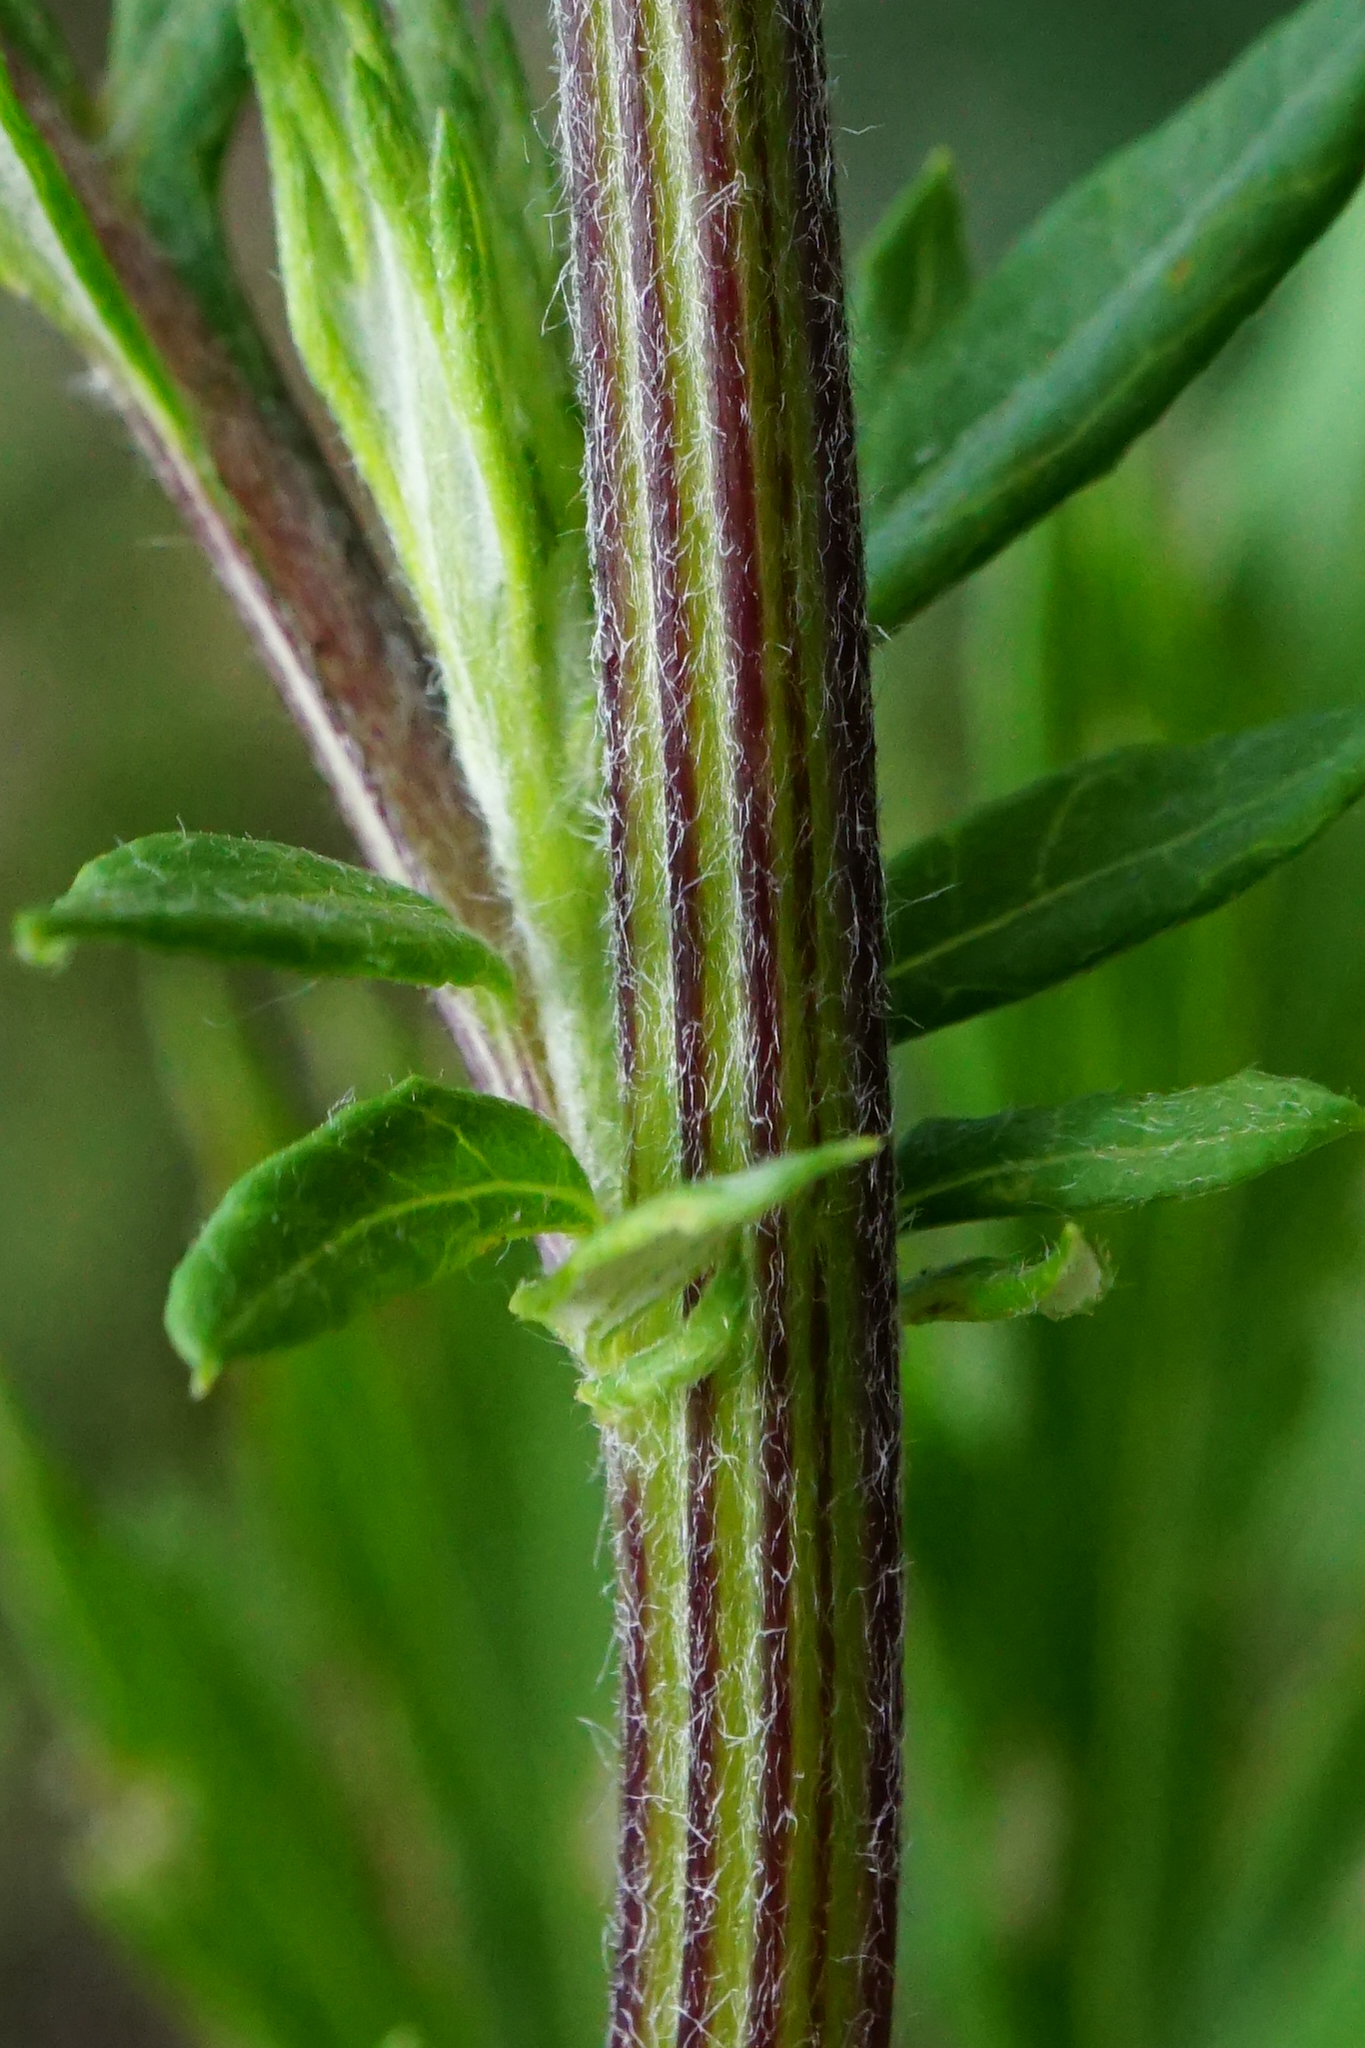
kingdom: Plantae
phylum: Tracheophyta
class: Magnoliopsida
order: Asterales
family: Asteraceae
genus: Artemisia
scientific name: Artemisia vulgaris
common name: Mugwort
